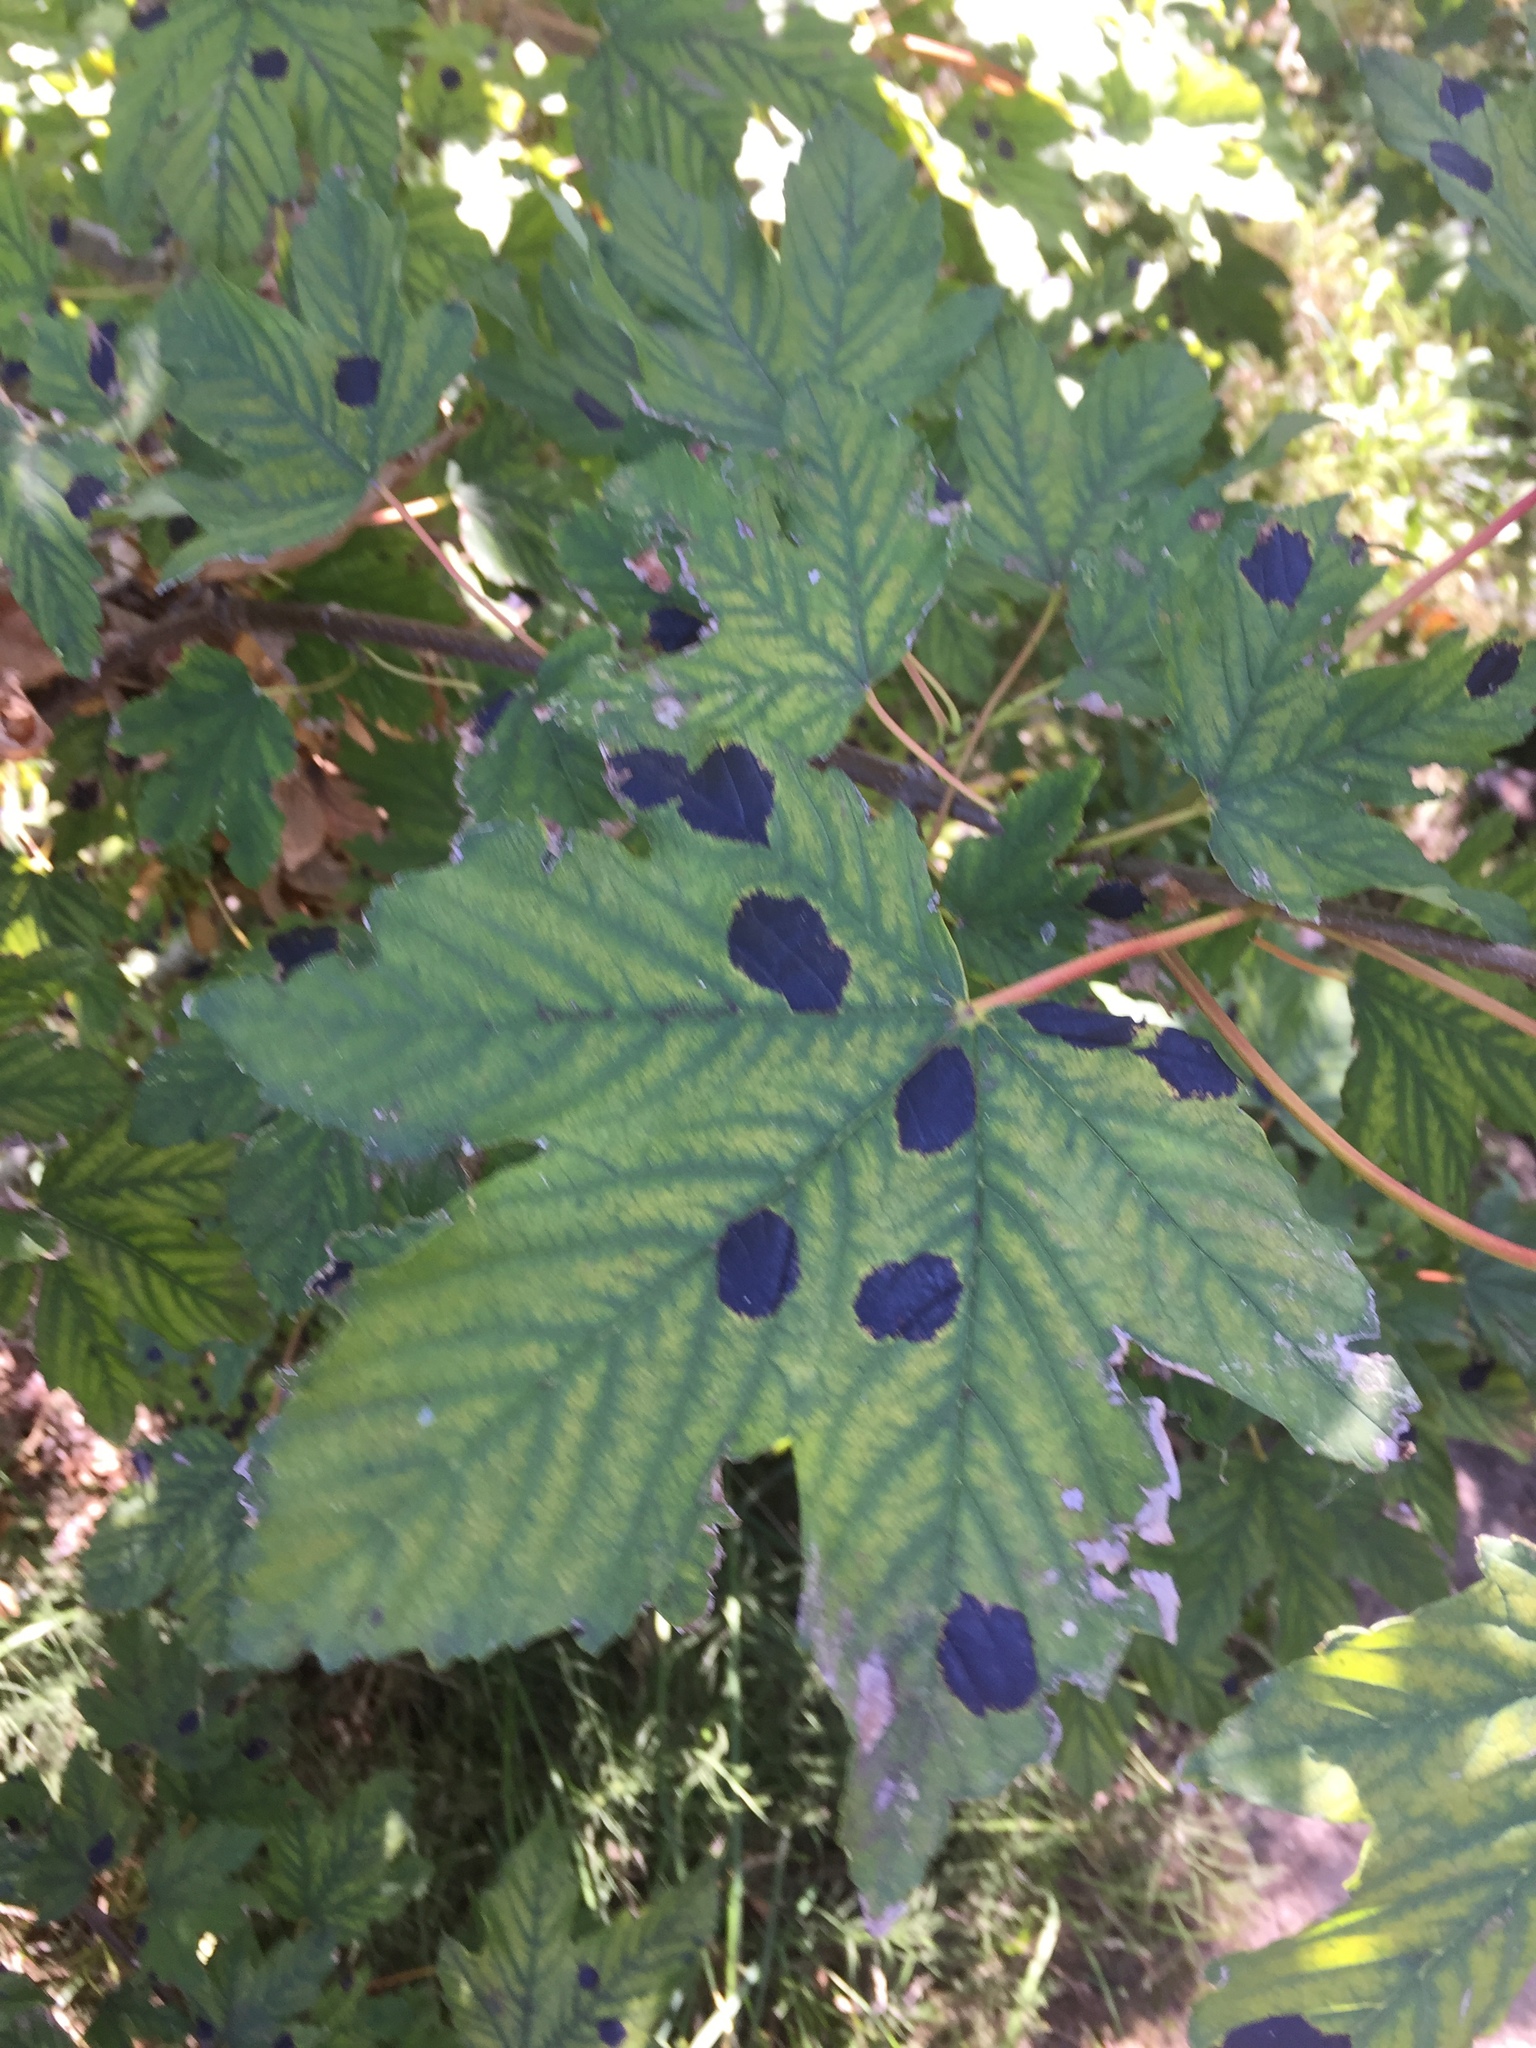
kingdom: Fungi
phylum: Ascomycota
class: Leotiomycetes
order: Rhytismatales
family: Rhytismataceae
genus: Rhytisma
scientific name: Rhytisma acerinum
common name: European tar spot
